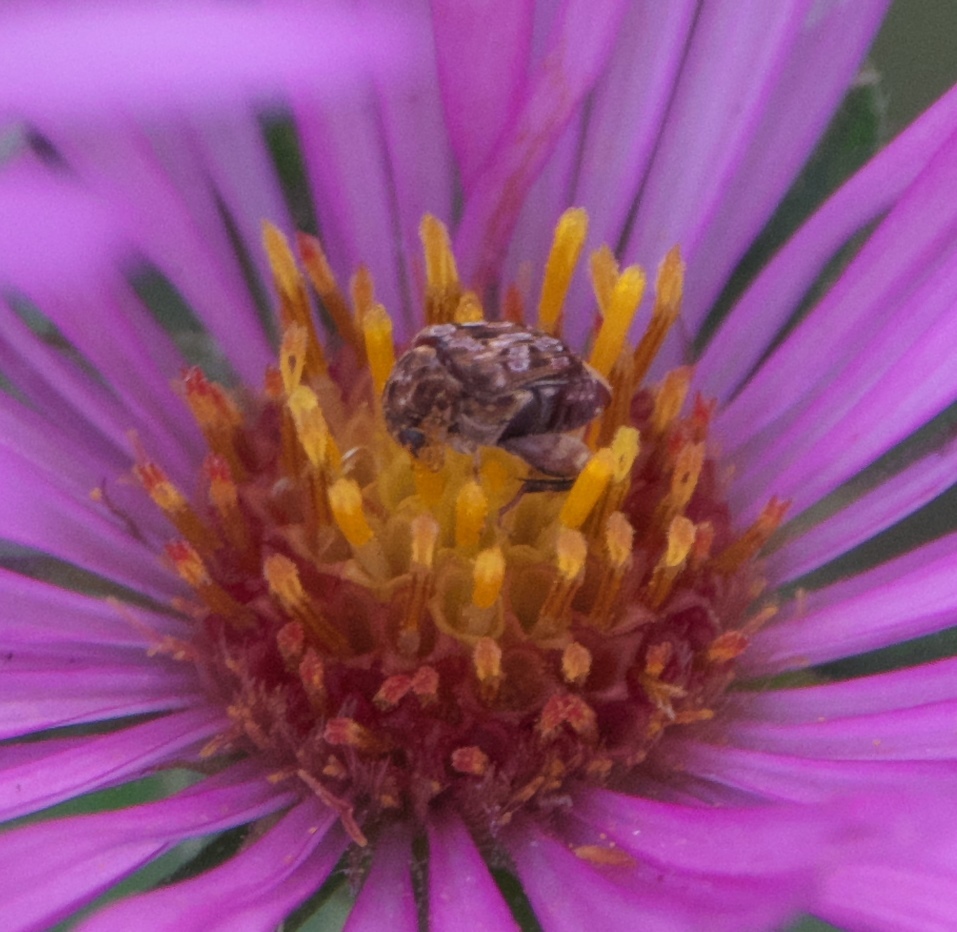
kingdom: Animalia
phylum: Arthropoda
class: Insecta
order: Coleoptera
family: Chrysomelidae
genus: Gibbobruchus
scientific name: Gibbobruchus mimus
